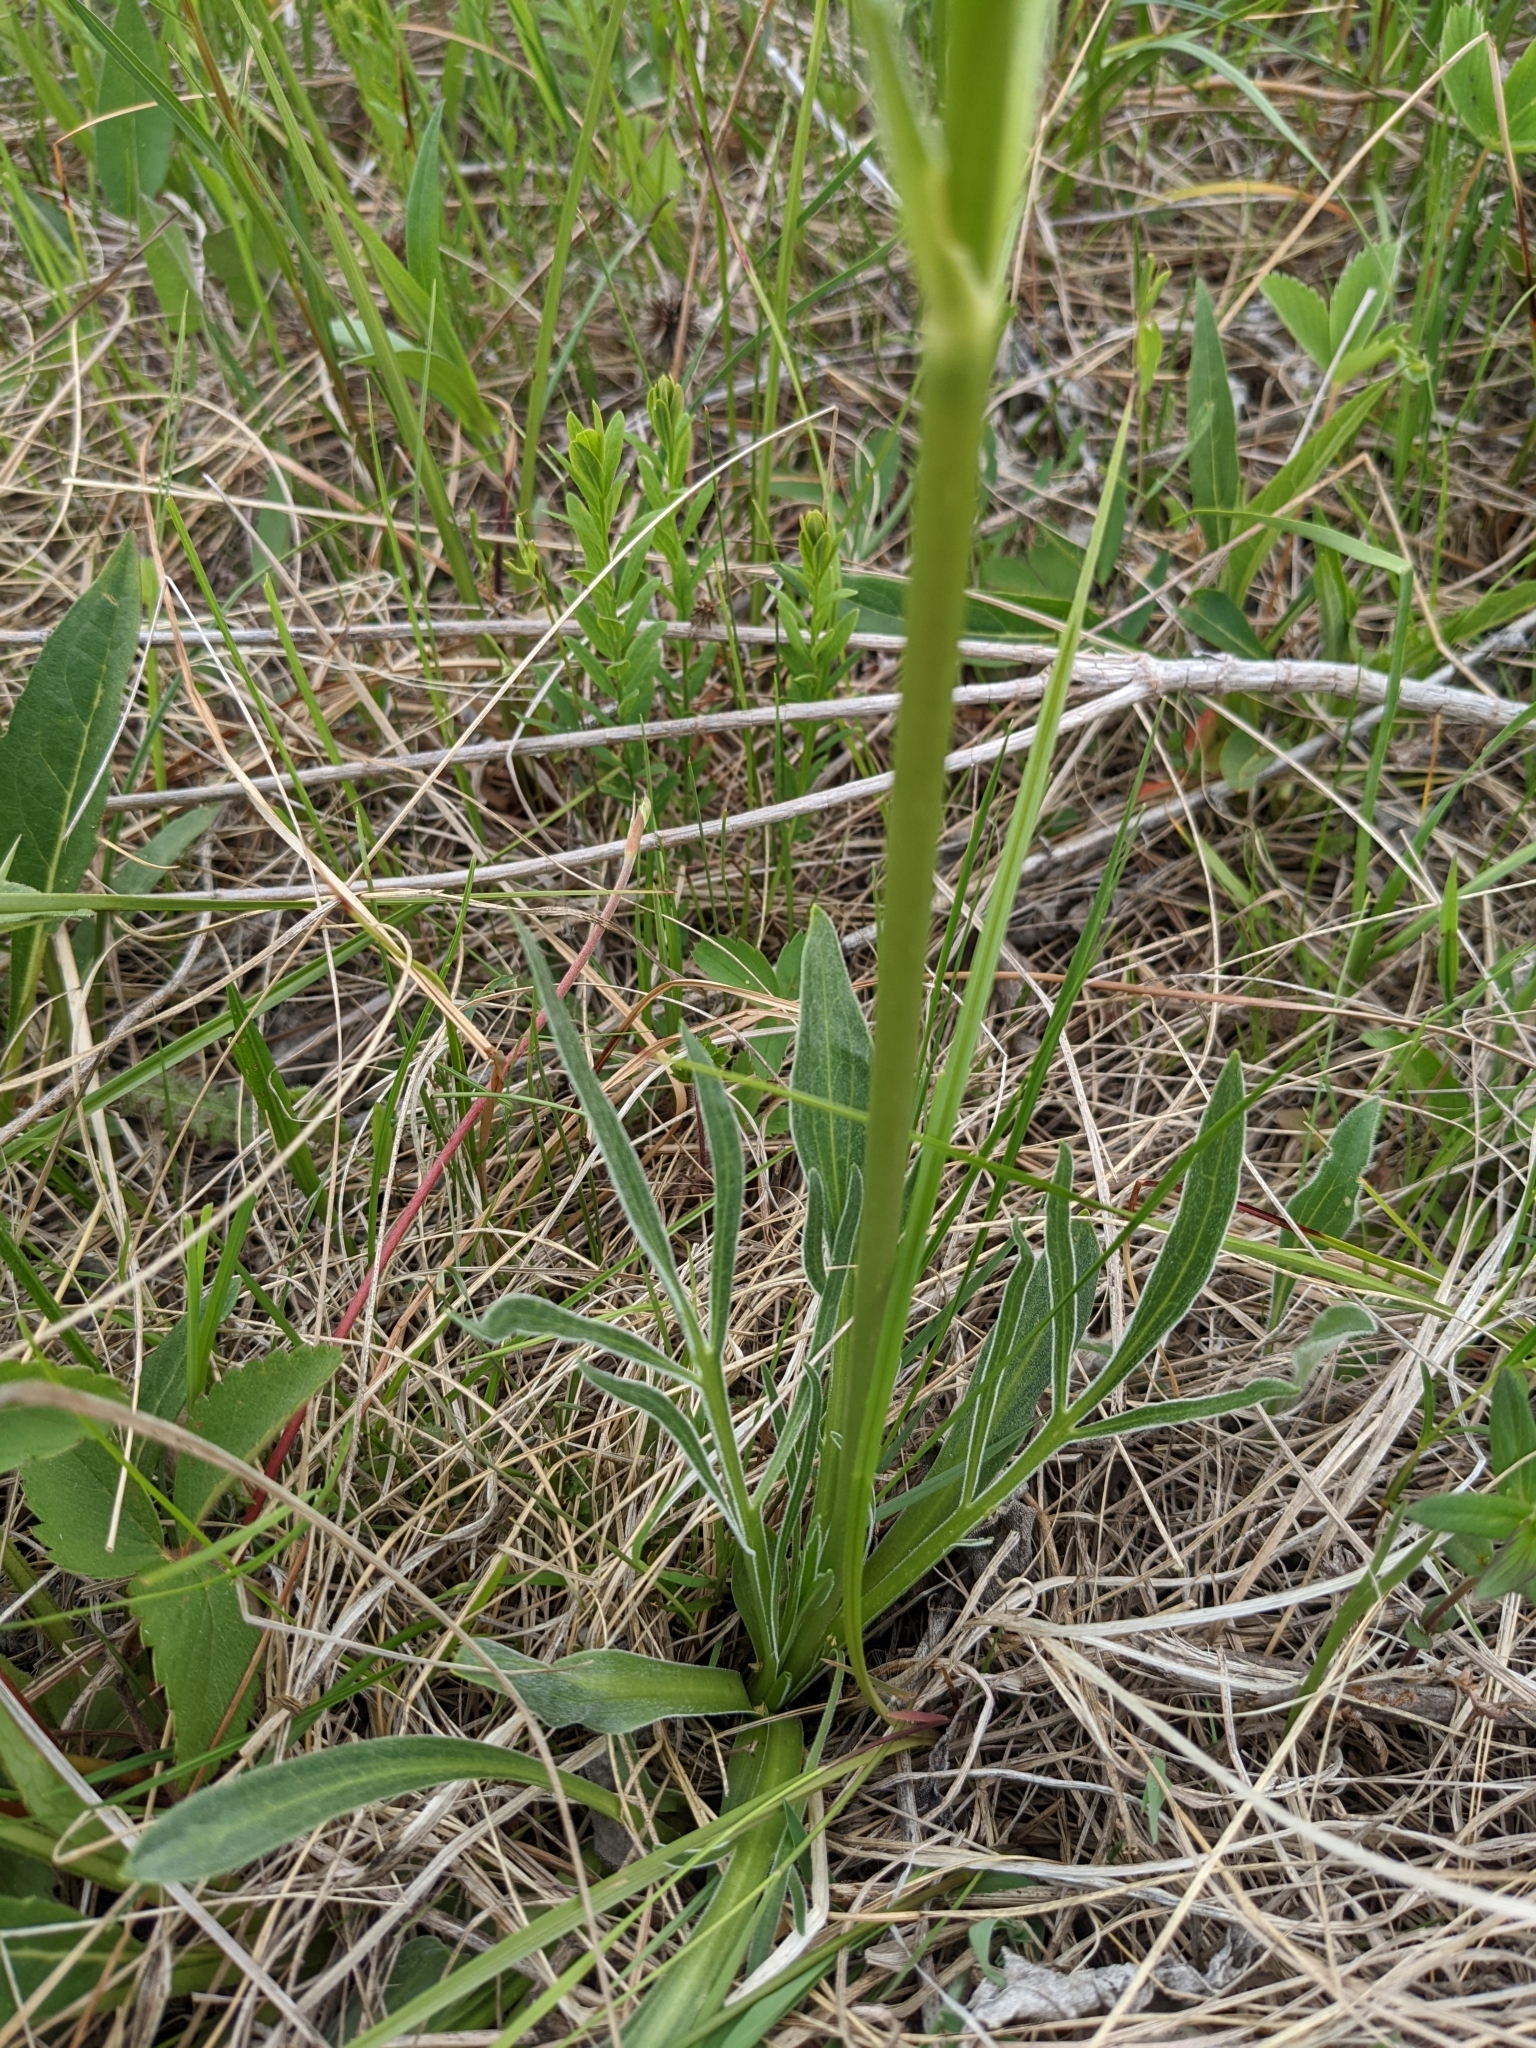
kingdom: Plantae
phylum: Tracheophyta
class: Magnoliopsida
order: Dipsacales
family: Caprifoliaceae
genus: Valeriana
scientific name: Valeriana edulis
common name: Taproot valerian
